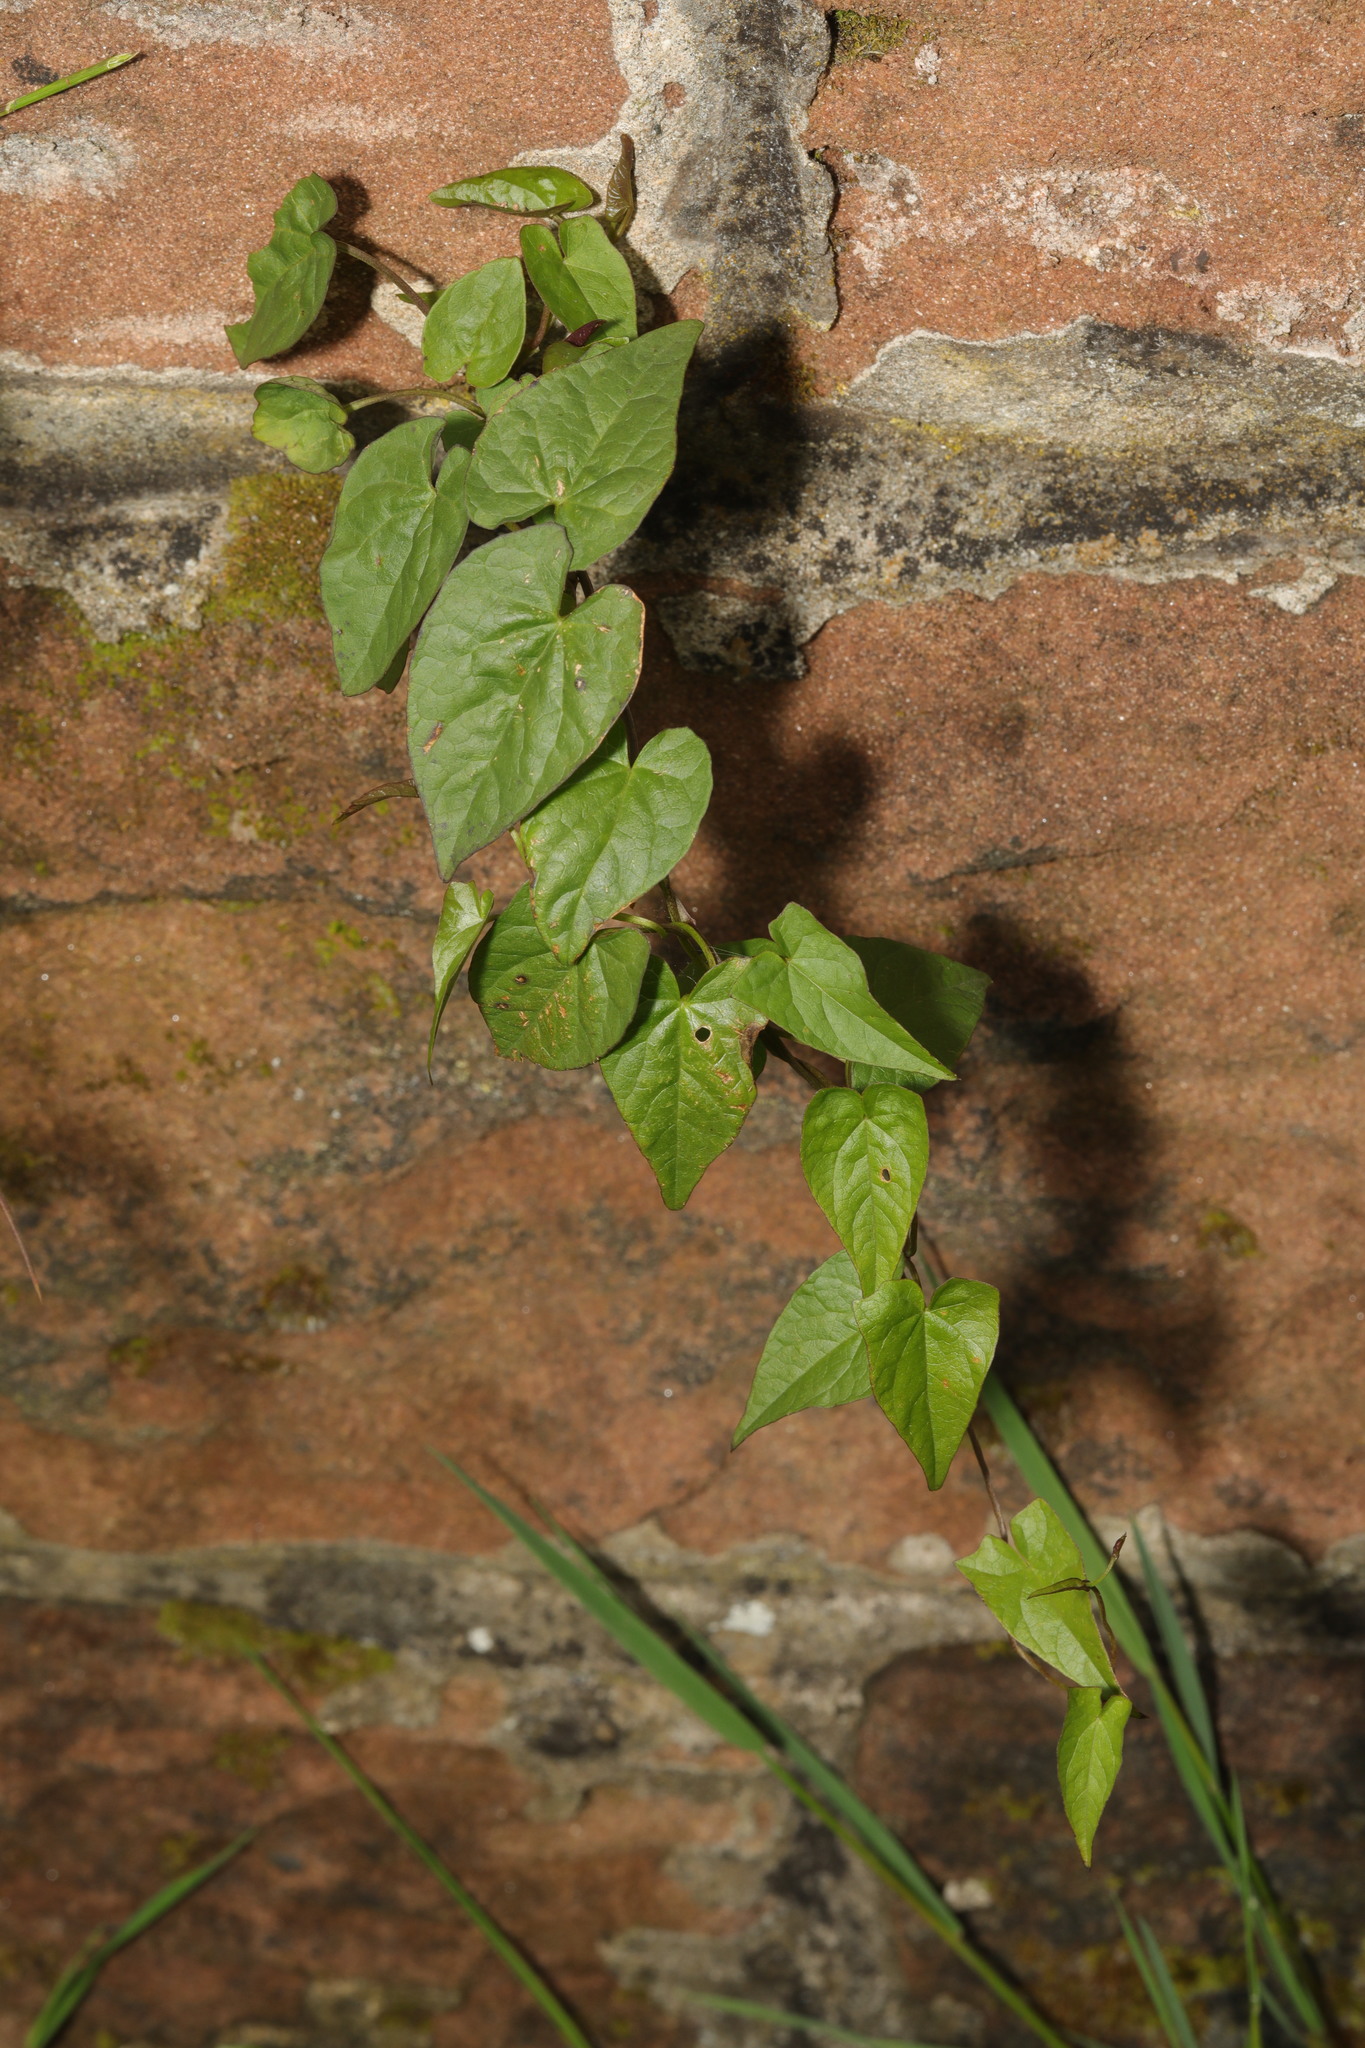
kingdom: Plantae
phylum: Tracheophyta
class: Magnoliopsida
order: Solanales
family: Convolvulaceae
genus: Calystegia
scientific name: Calystegia
